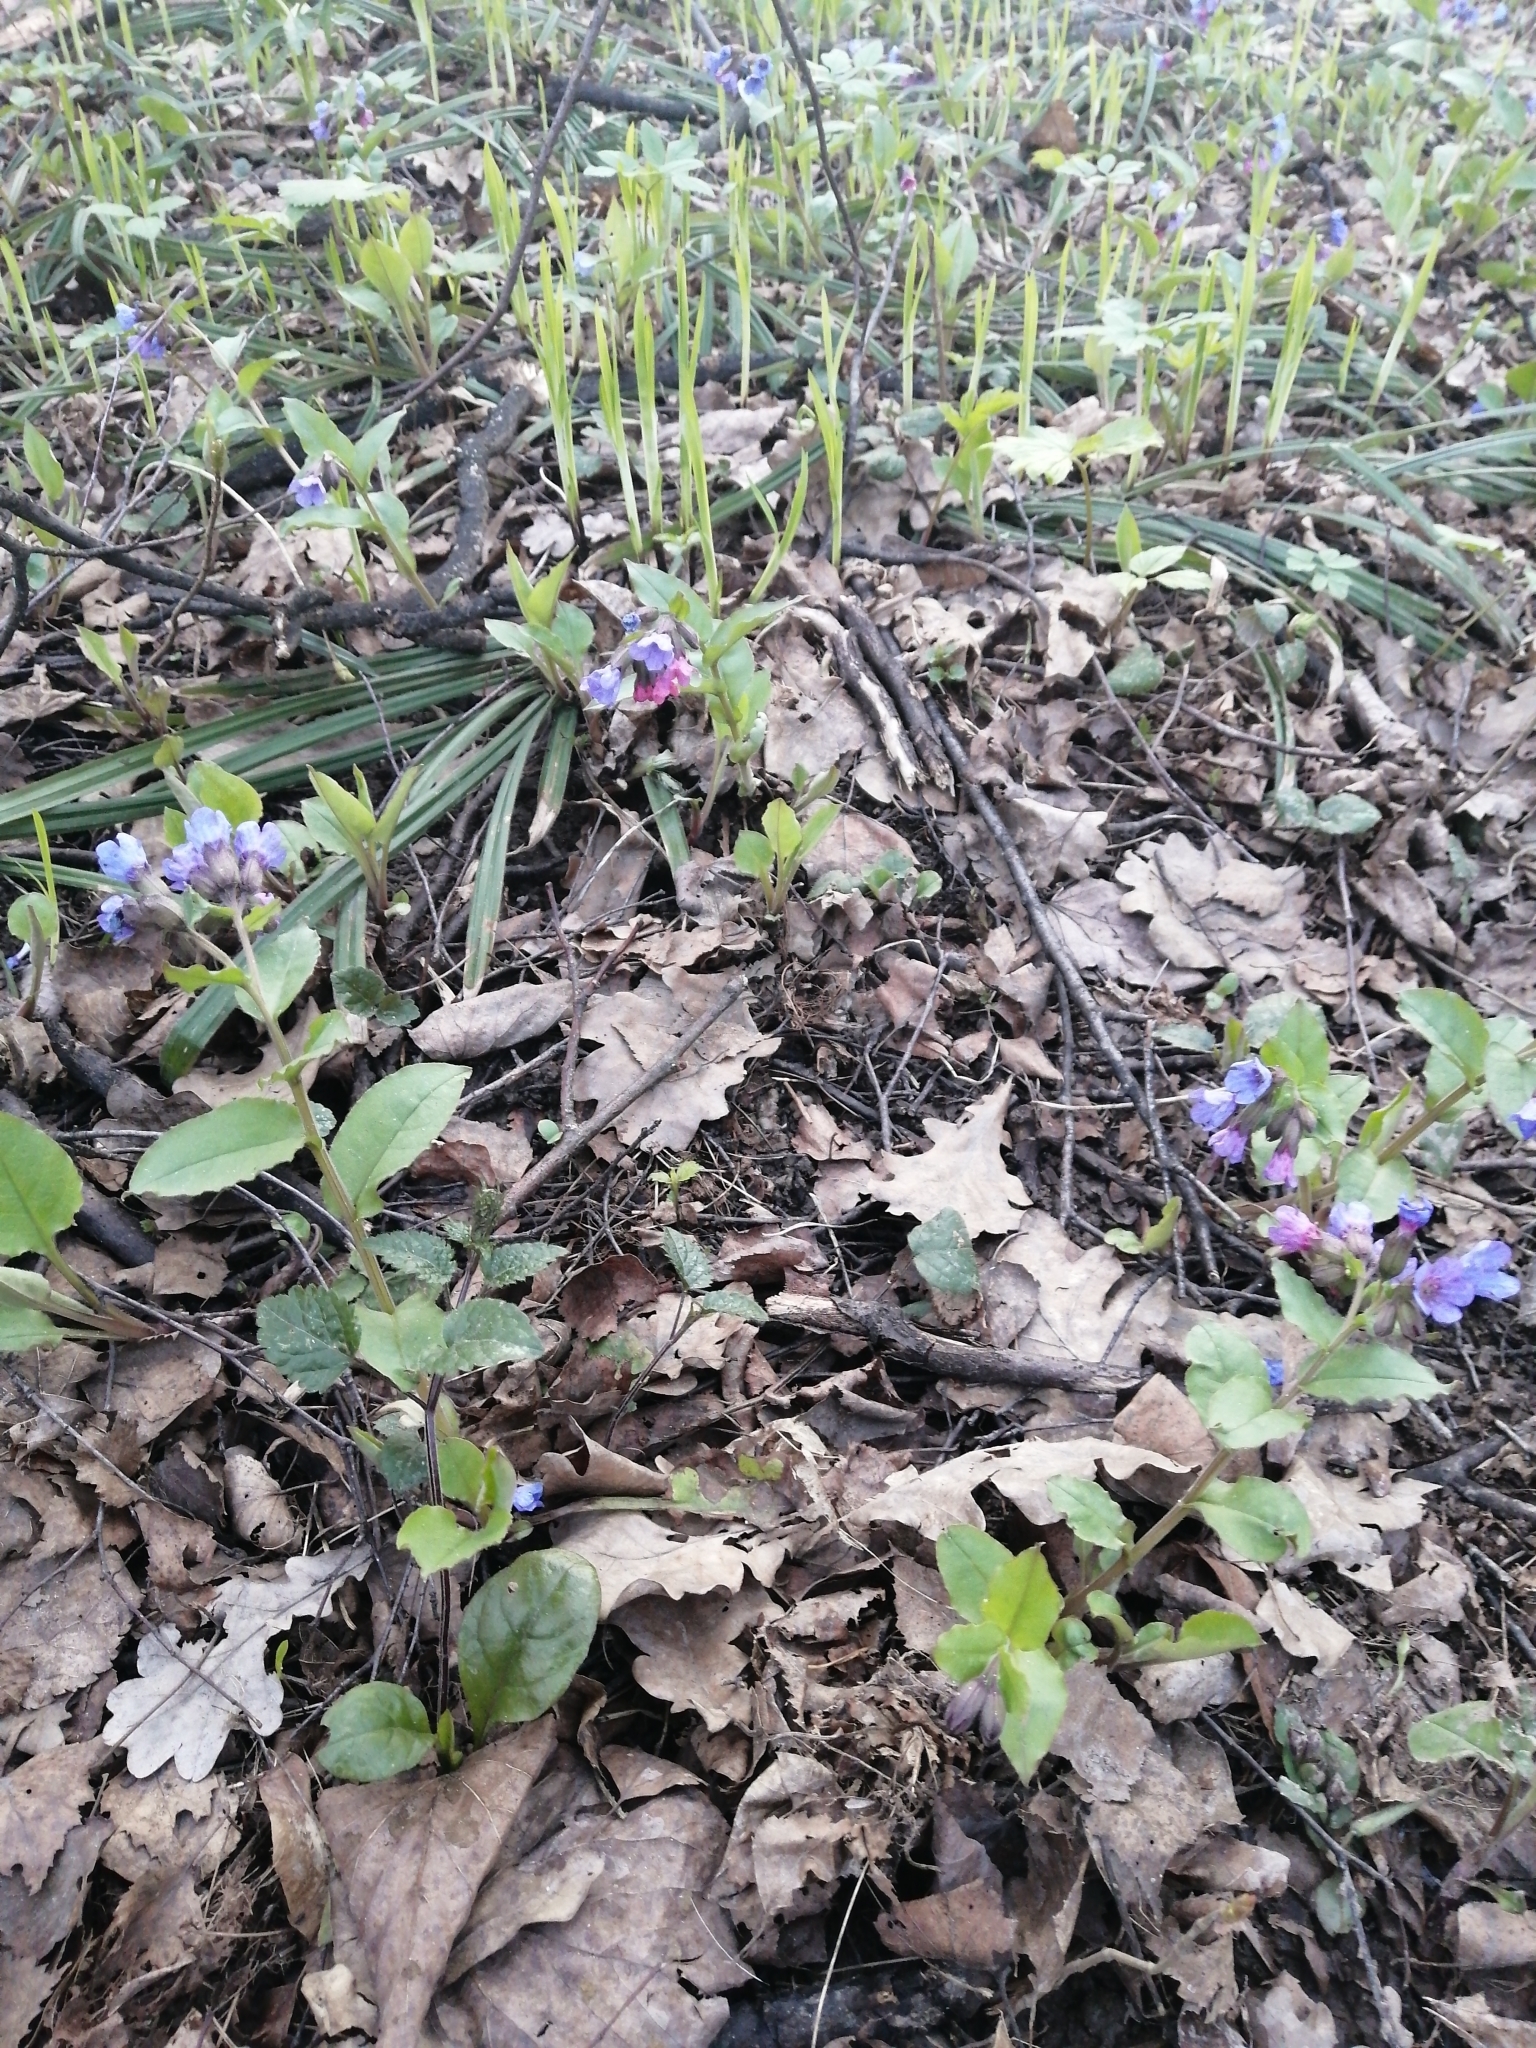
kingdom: Plantae
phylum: Tracheophyta
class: Magnoliopsida
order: Boraginales
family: Boraginaceae
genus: Pulmonaria
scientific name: Pulmonaria obscura
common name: Suffolk lungwort
